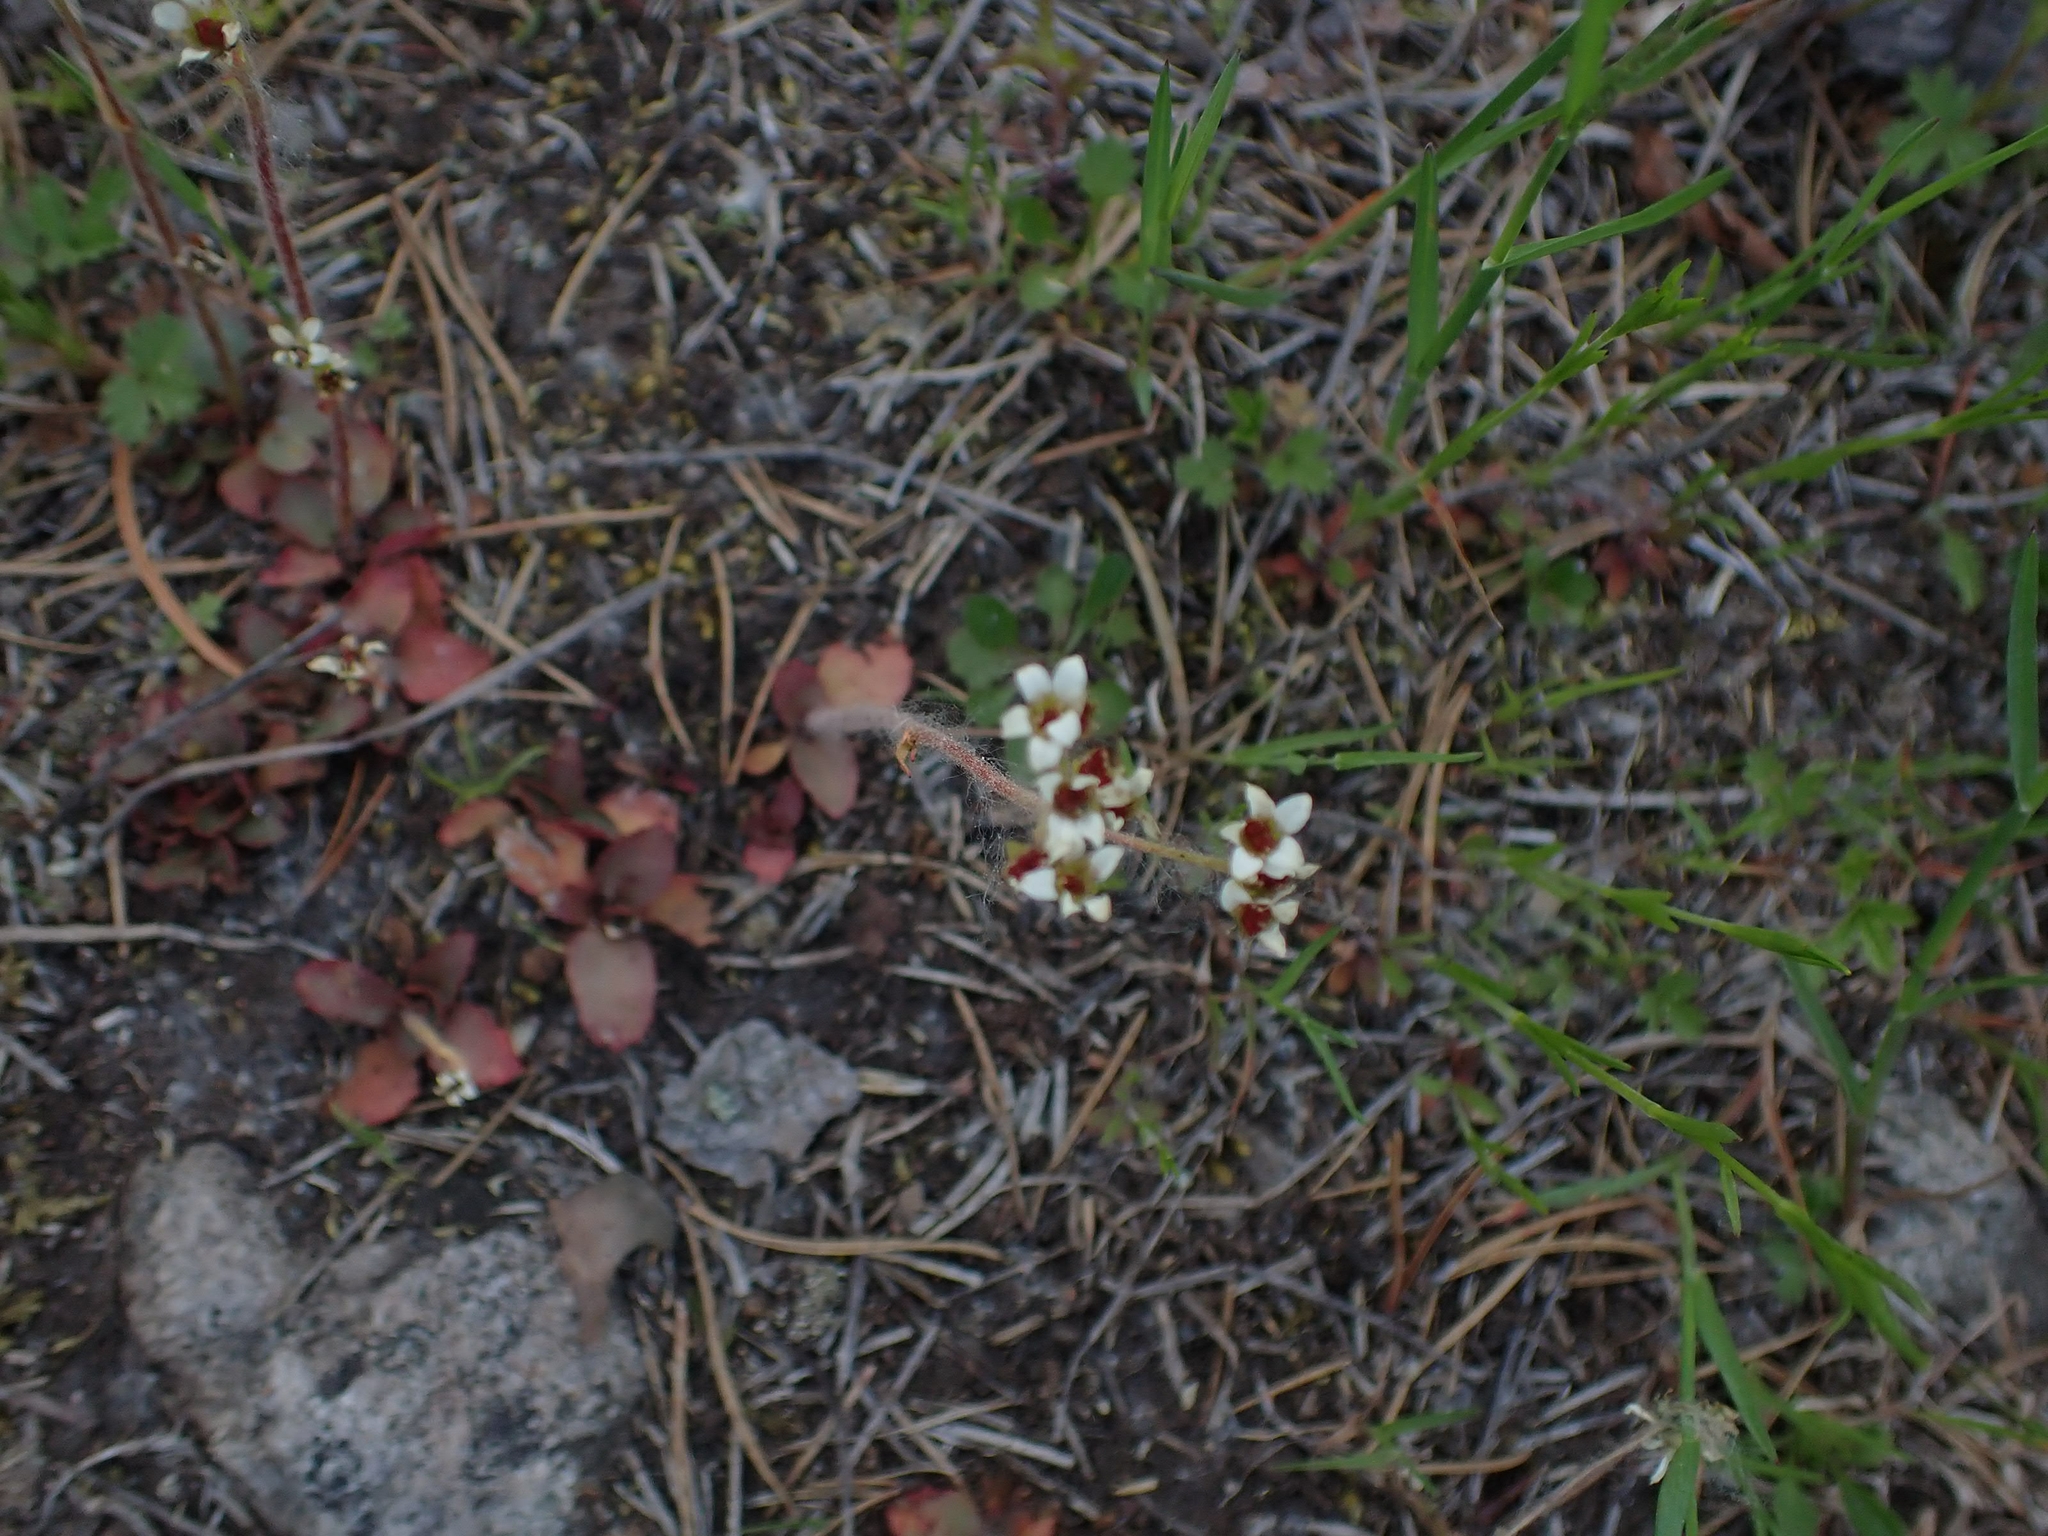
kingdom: Plantae
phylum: Tracheophyta
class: Magnoliopsida
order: Saxifragales
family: Saxifragaceae
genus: Micranthes
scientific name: Micranthes virginiensis
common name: Early saxifrage
